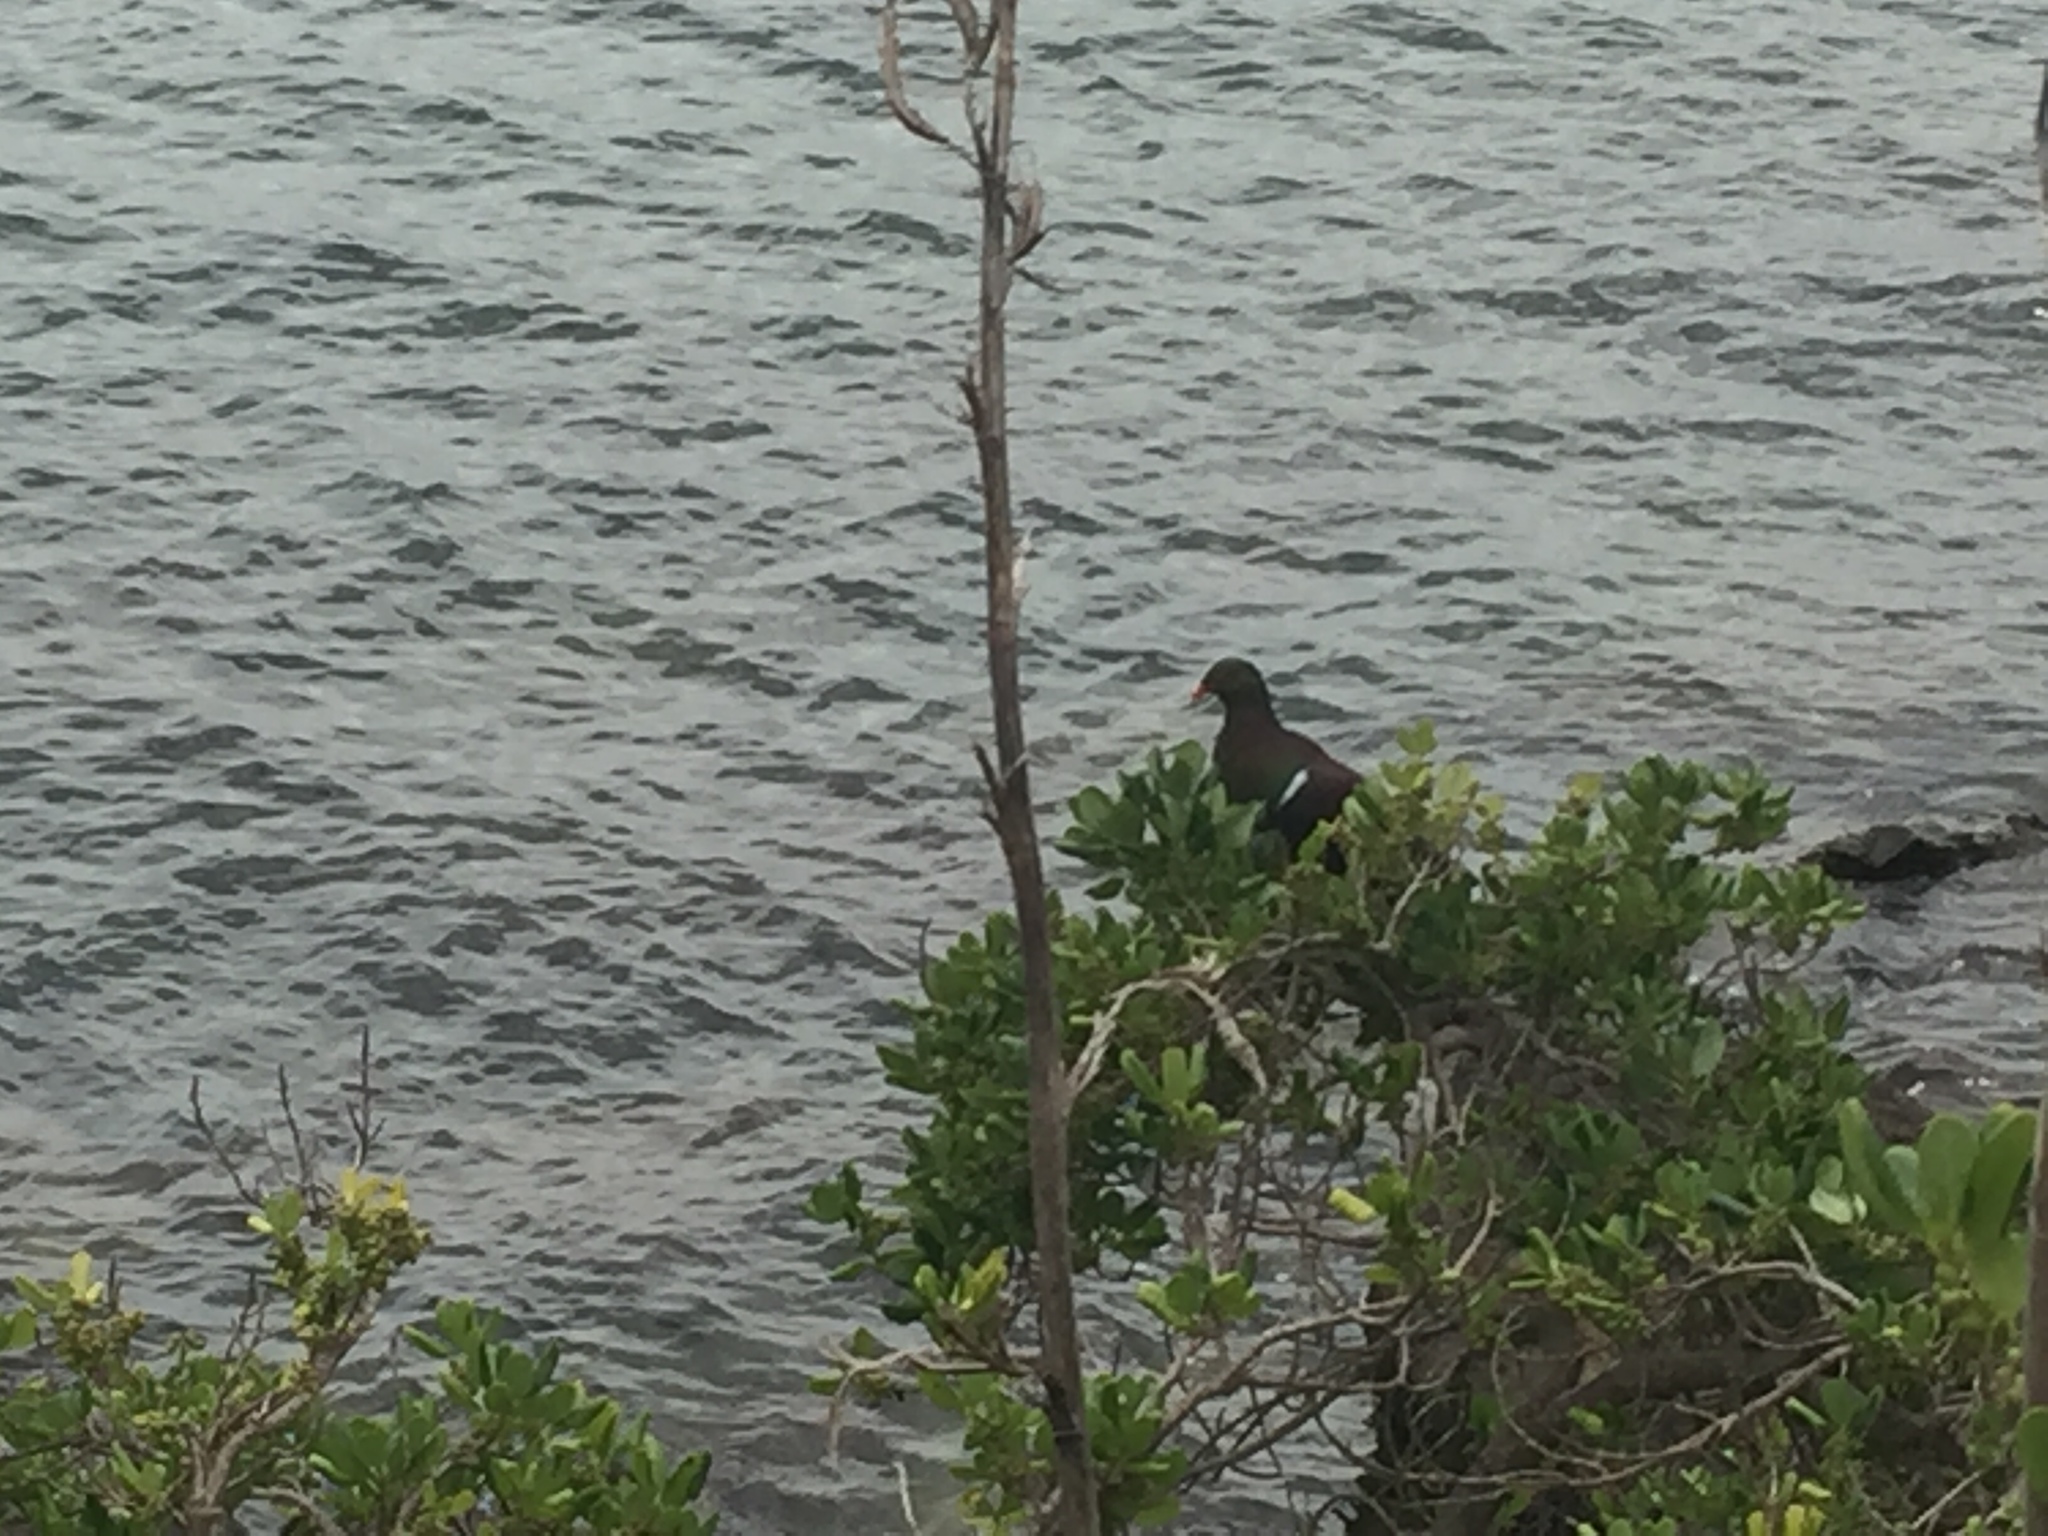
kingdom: Animalia
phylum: Chordata
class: Aves
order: Columbiformes
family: Columbidae
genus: Hemiphaga
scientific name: Hemiphaga novaeseelandiae
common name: New zealand pigeon
